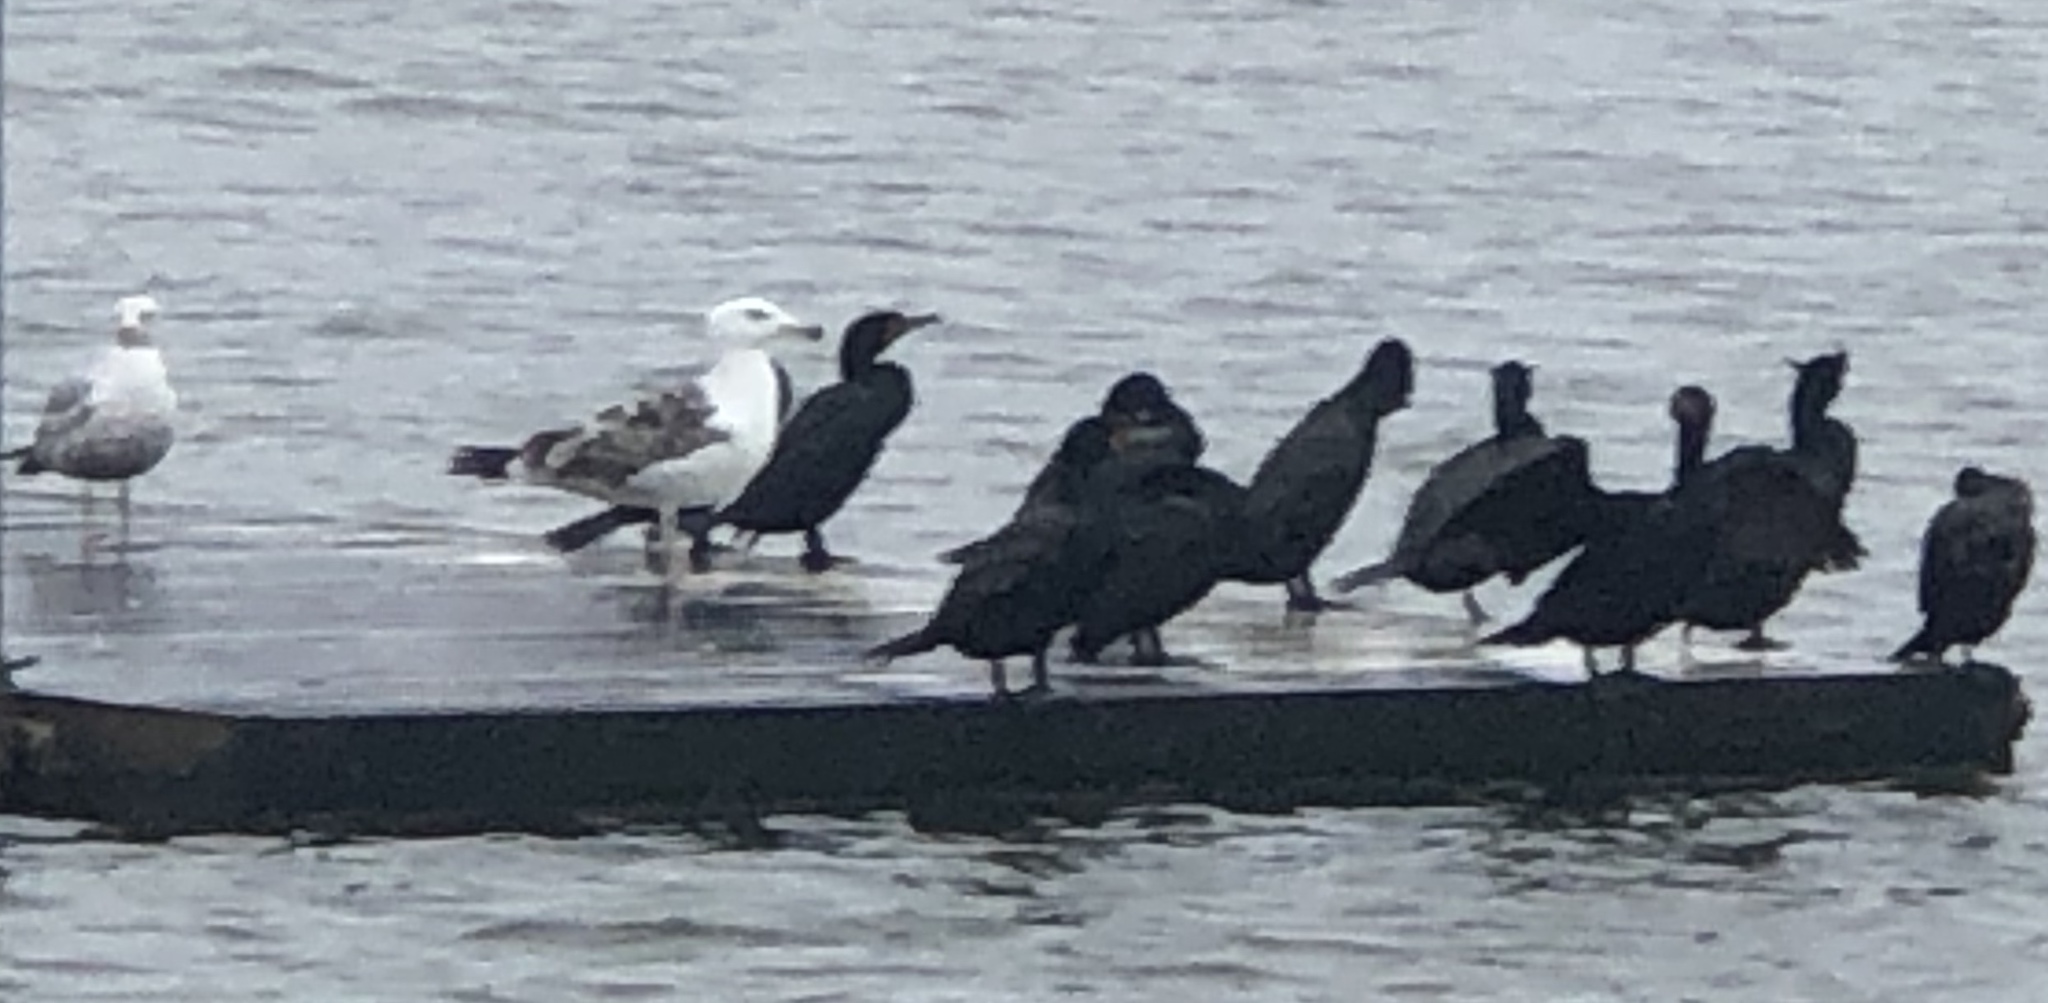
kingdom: Animalia
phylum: Chordata
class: Aves
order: Suliformes
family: Phalacrocoracidae
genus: Phalacrocorax
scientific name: Phalacrocorax auritus
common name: Double-crested cormorant
